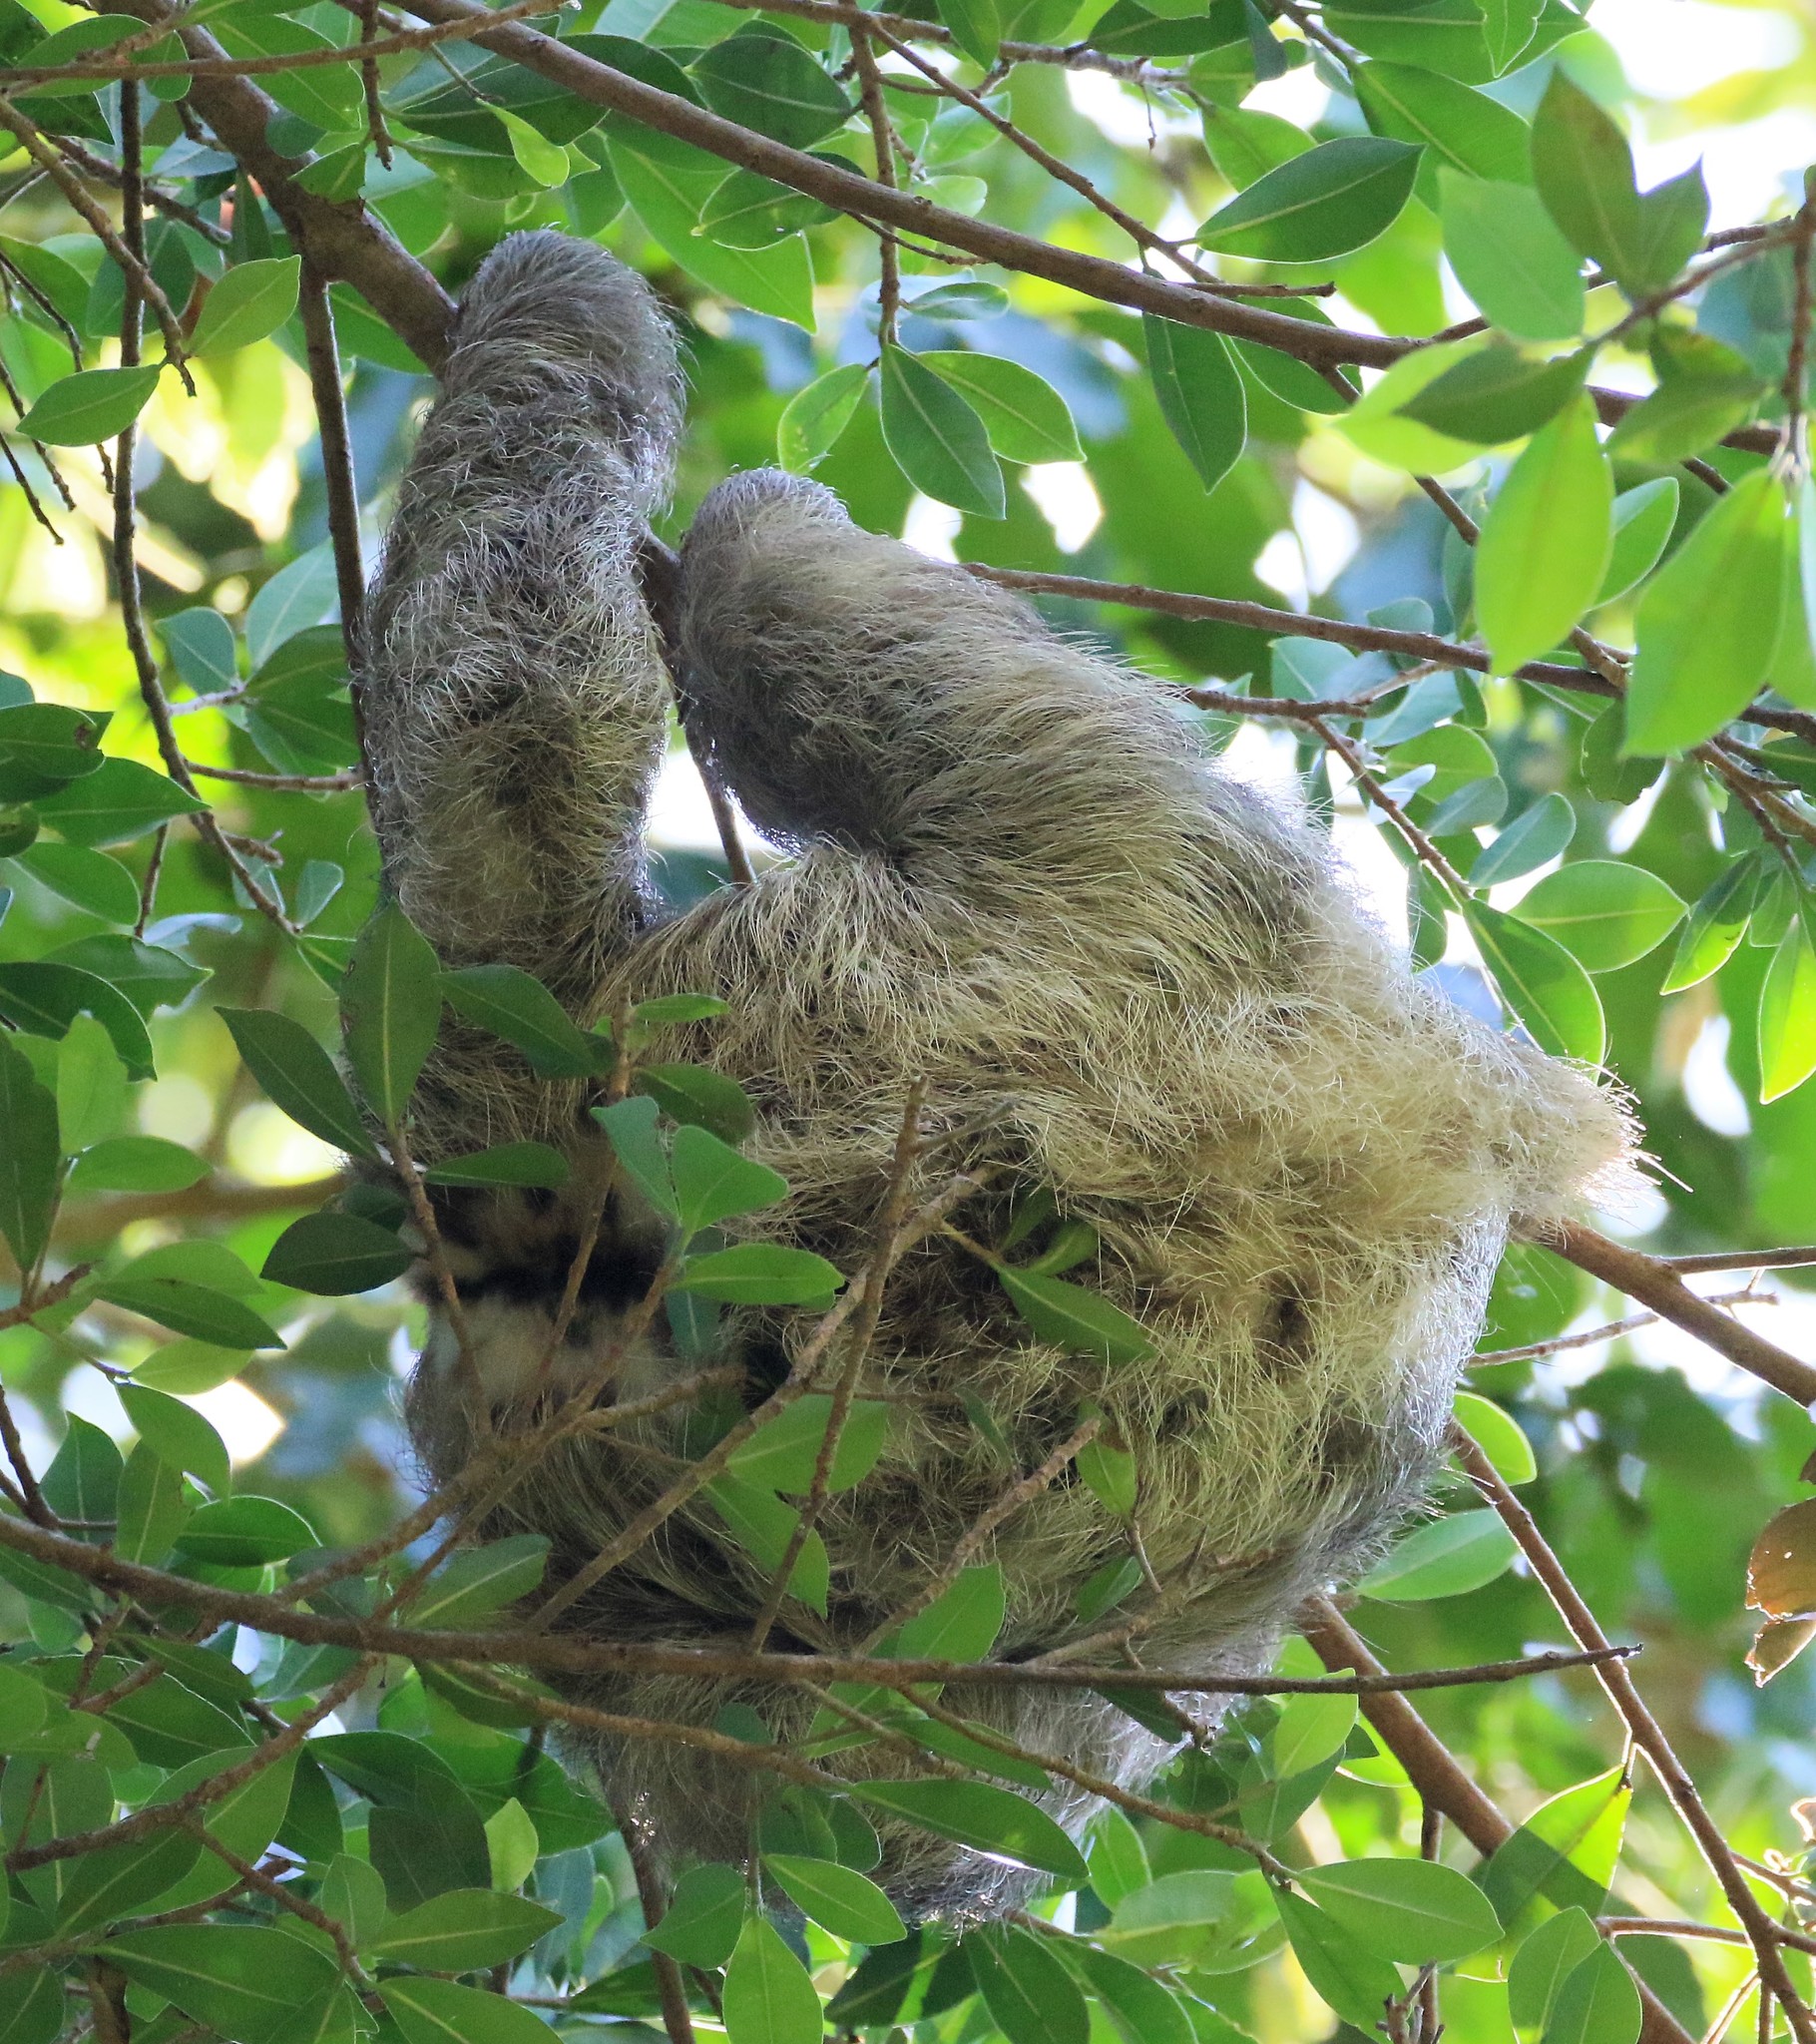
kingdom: Animalia
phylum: Chordata
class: Mammalia
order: Pilosa
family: Bradypodidae
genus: Bradypus
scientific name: Bradypus variegatus
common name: Brown-throated three-toed sloth
